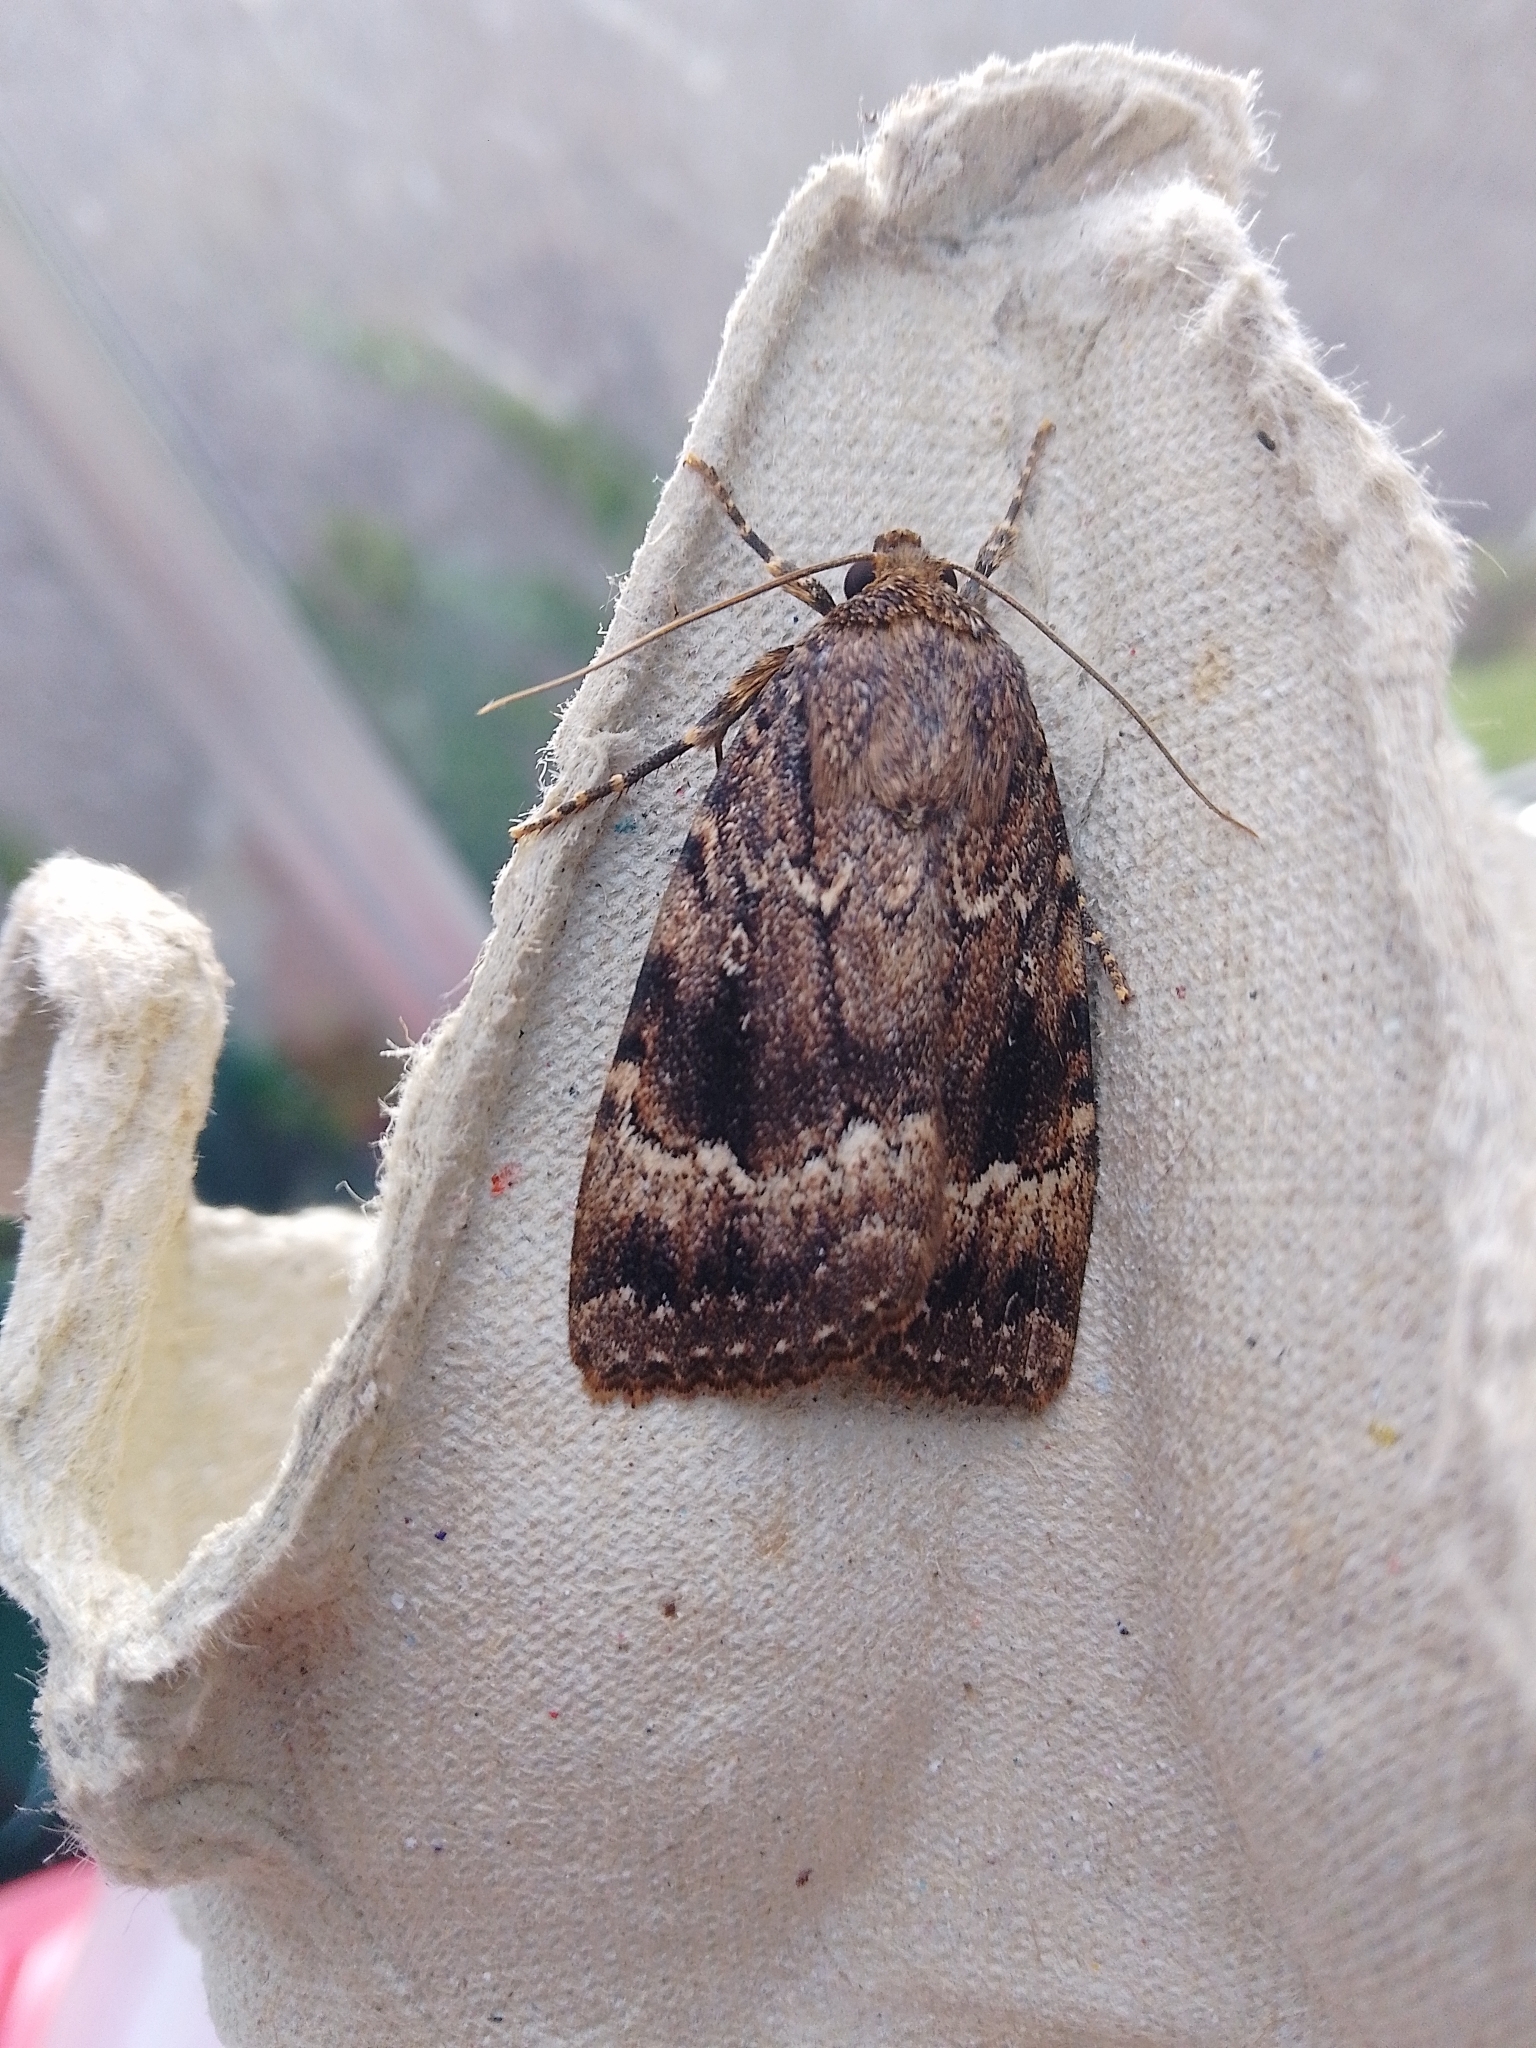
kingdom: Animalia
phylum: Arthropoda
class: Insecta
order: Lepidoptera
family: Noctuidae
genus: Amphipyra
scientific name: Amphipyra pyramidea
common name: Copper underwing
